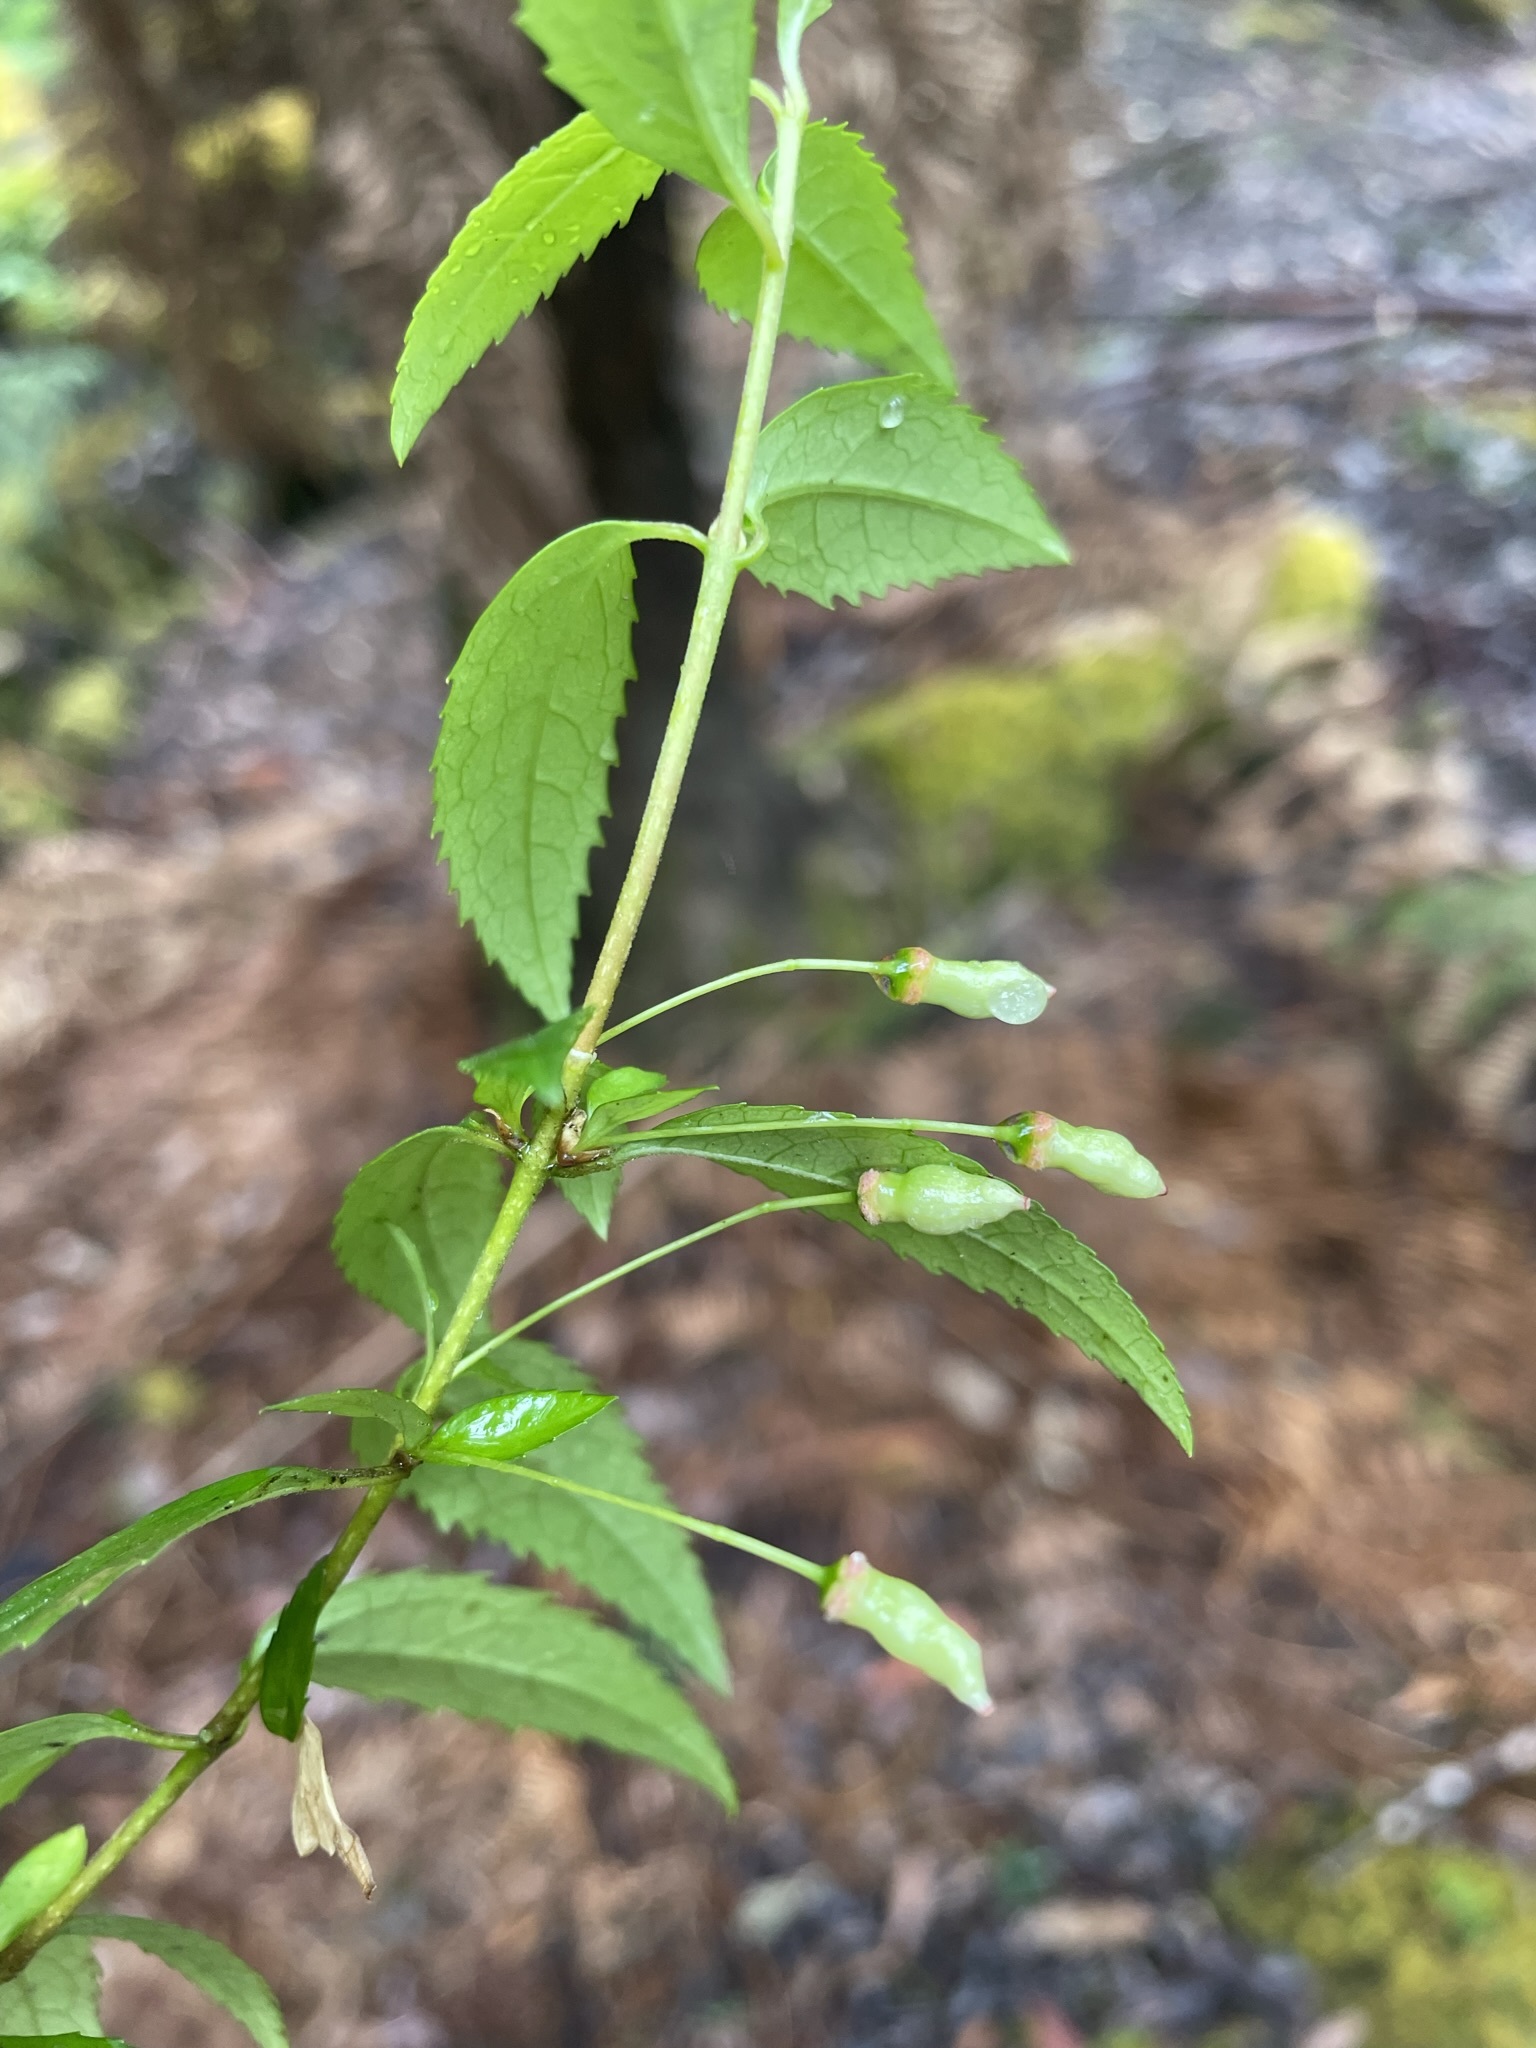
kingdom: Plantae
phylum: Tracheophyta
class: Magnoliopsida
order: Oxalidales
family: Elaeocarpaceae
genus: Aristotelia
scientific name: Aristotelia peduncularis
